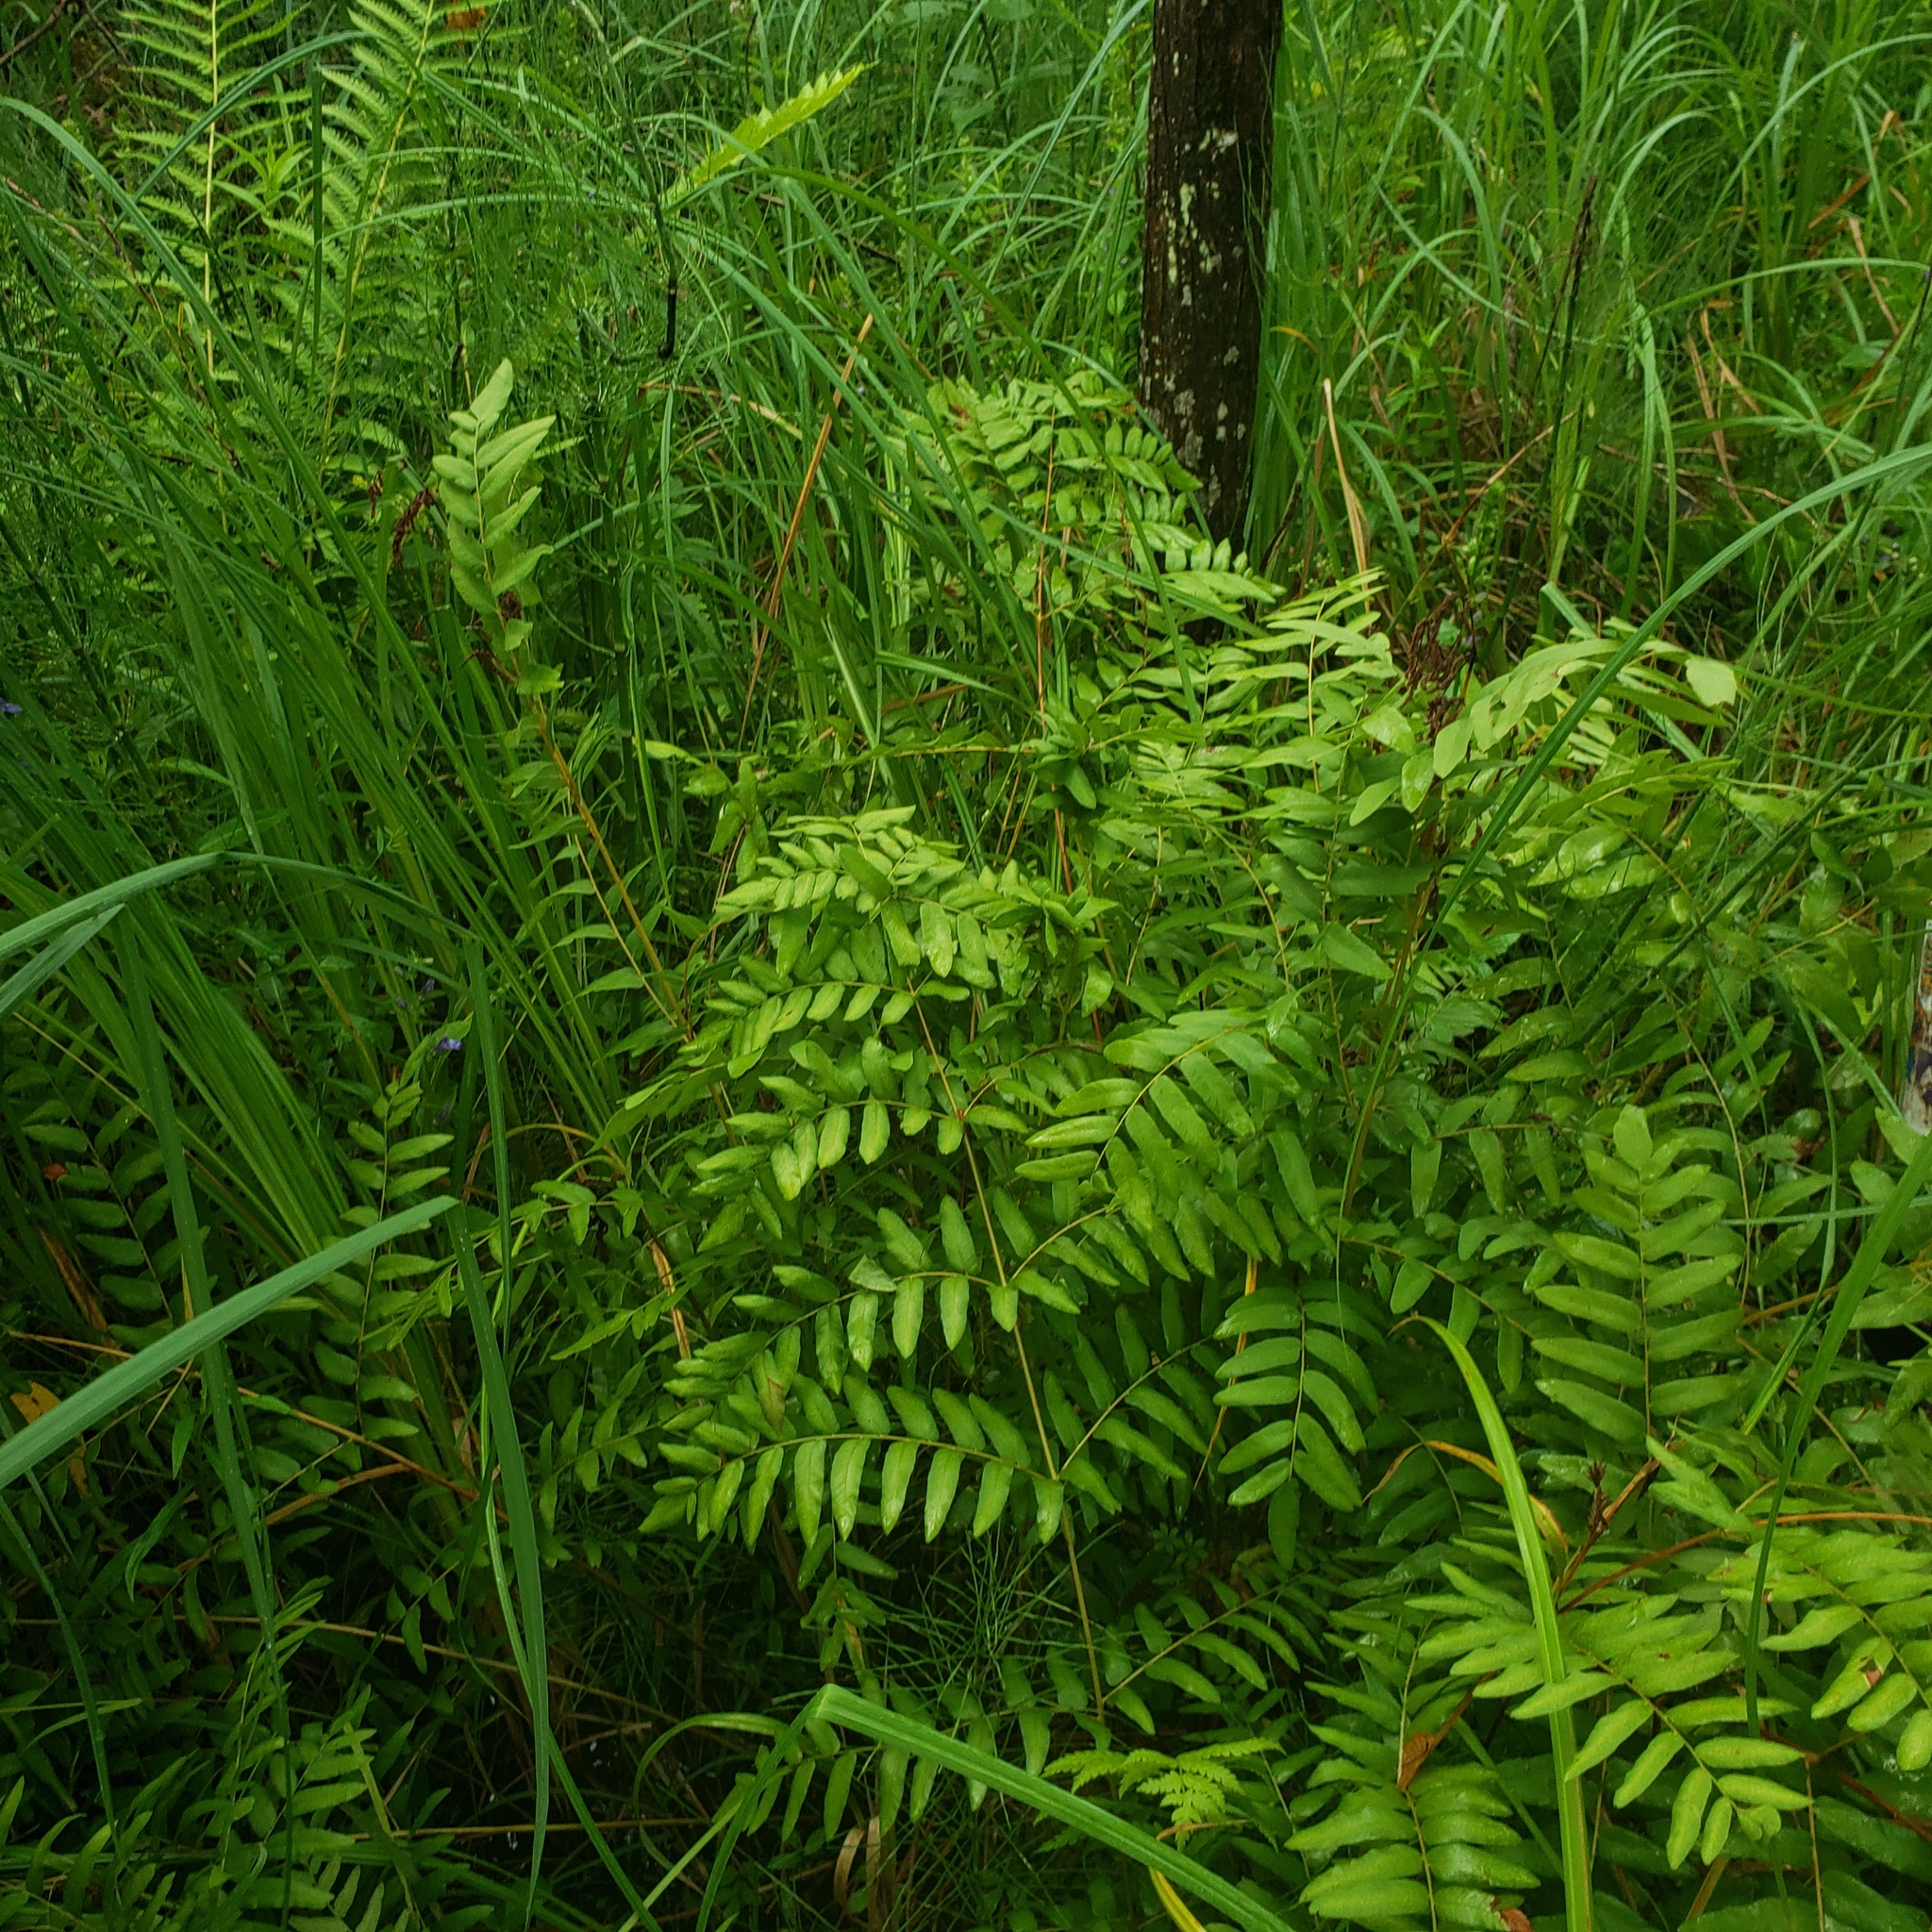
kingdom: Plantae
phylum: Tracheophyta
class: Polypodiopsida
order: Osmundales
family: Osmundaceae
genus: Osmunda
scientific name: Osmunda spectabilis
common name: American royal fern
